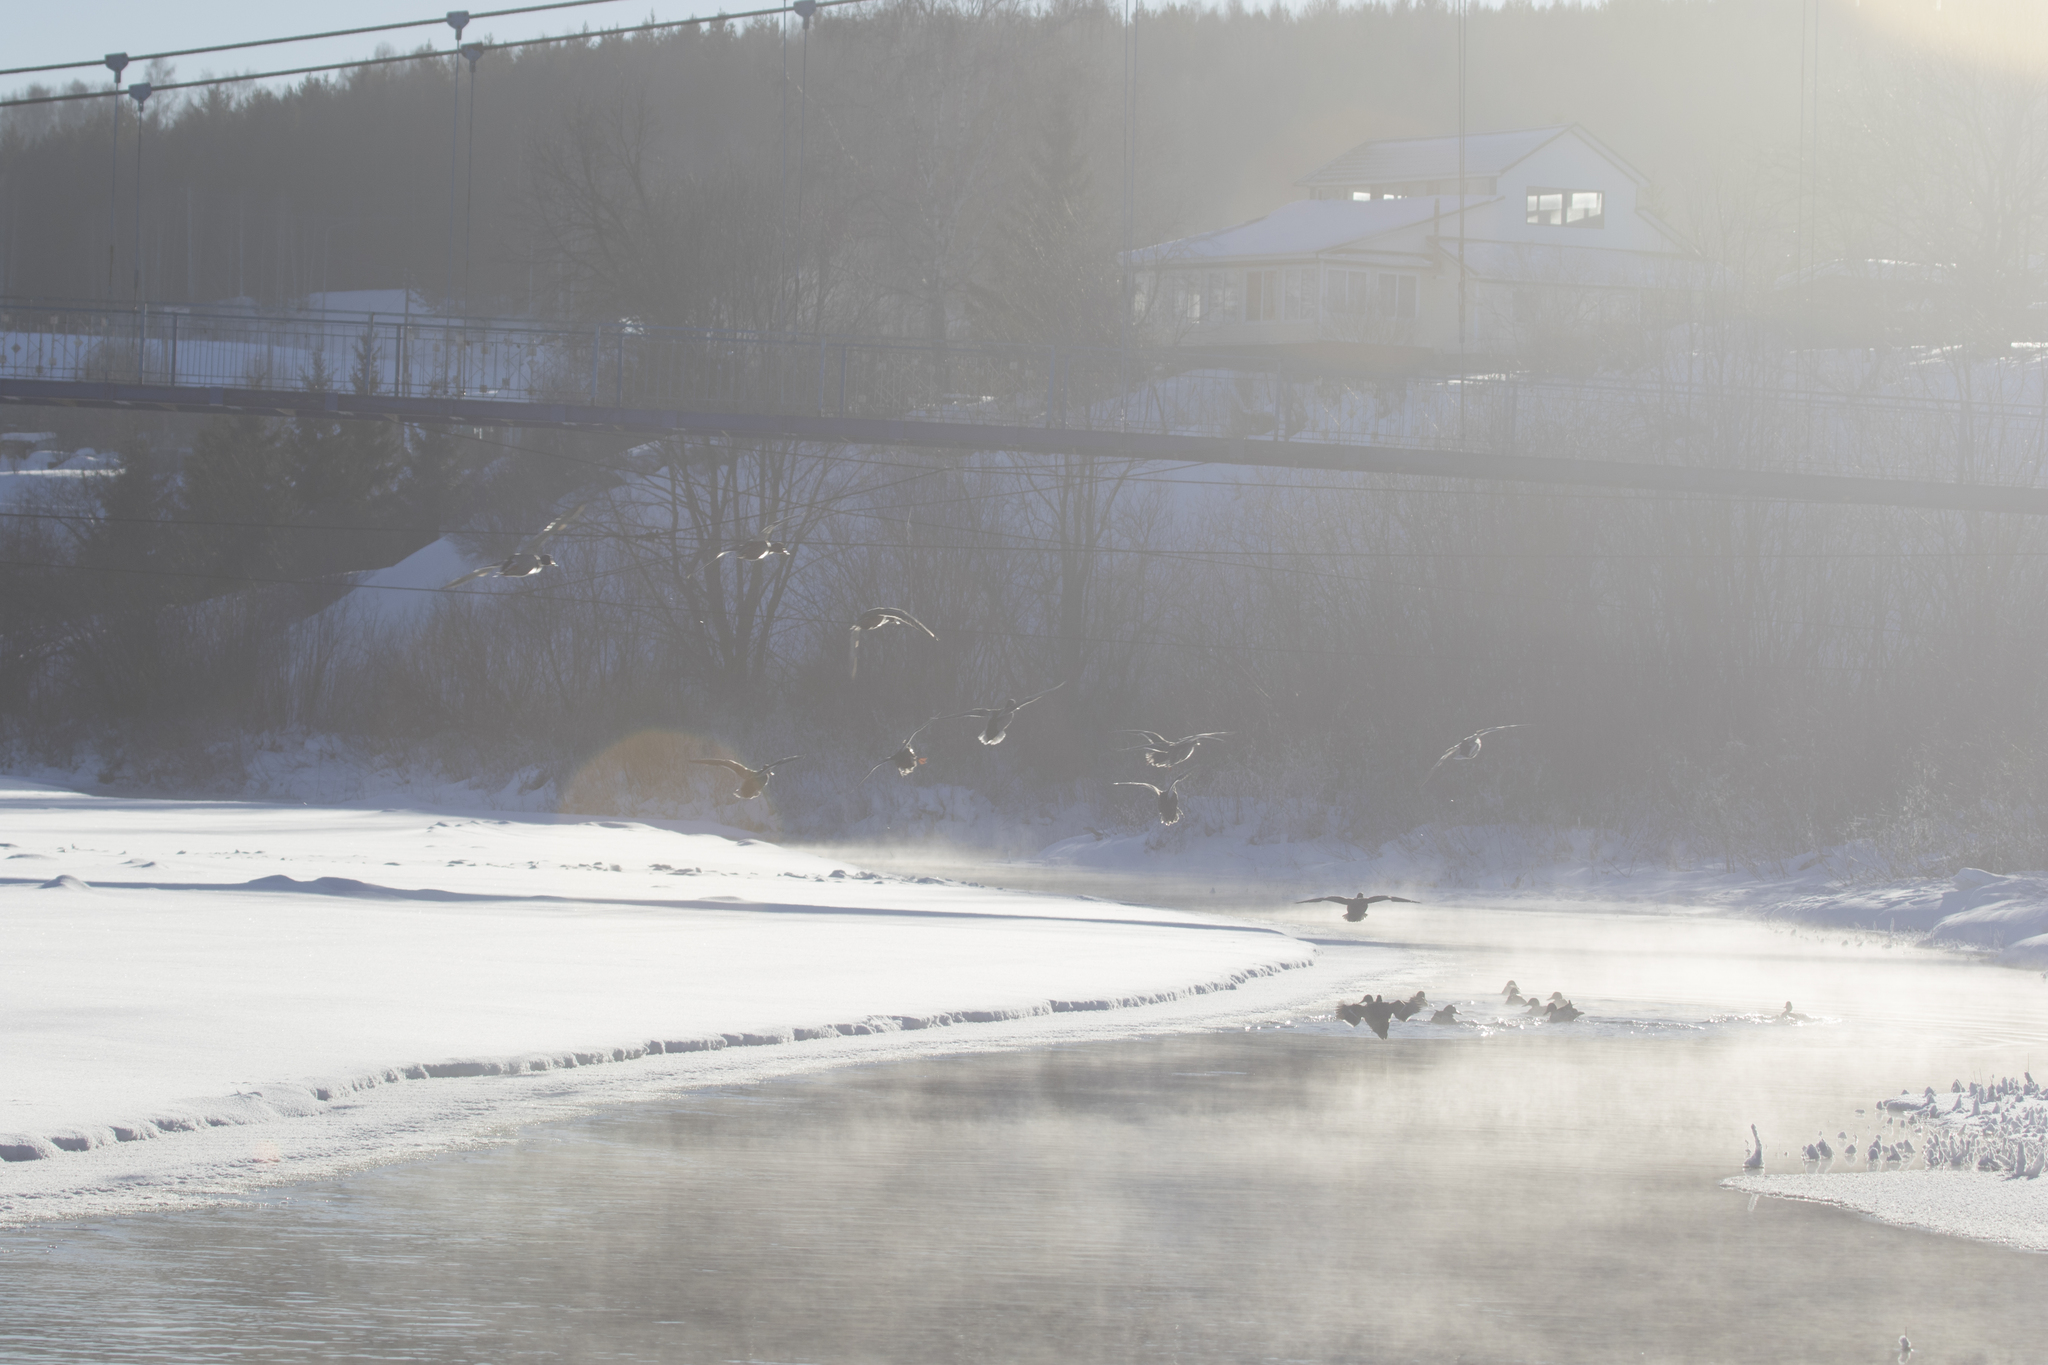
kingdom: Animalia
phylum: Chordata
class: Aves
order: Anseriformes
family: Anatidae
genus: Anas
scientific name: Anas platyrhynchos
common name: Mallard
